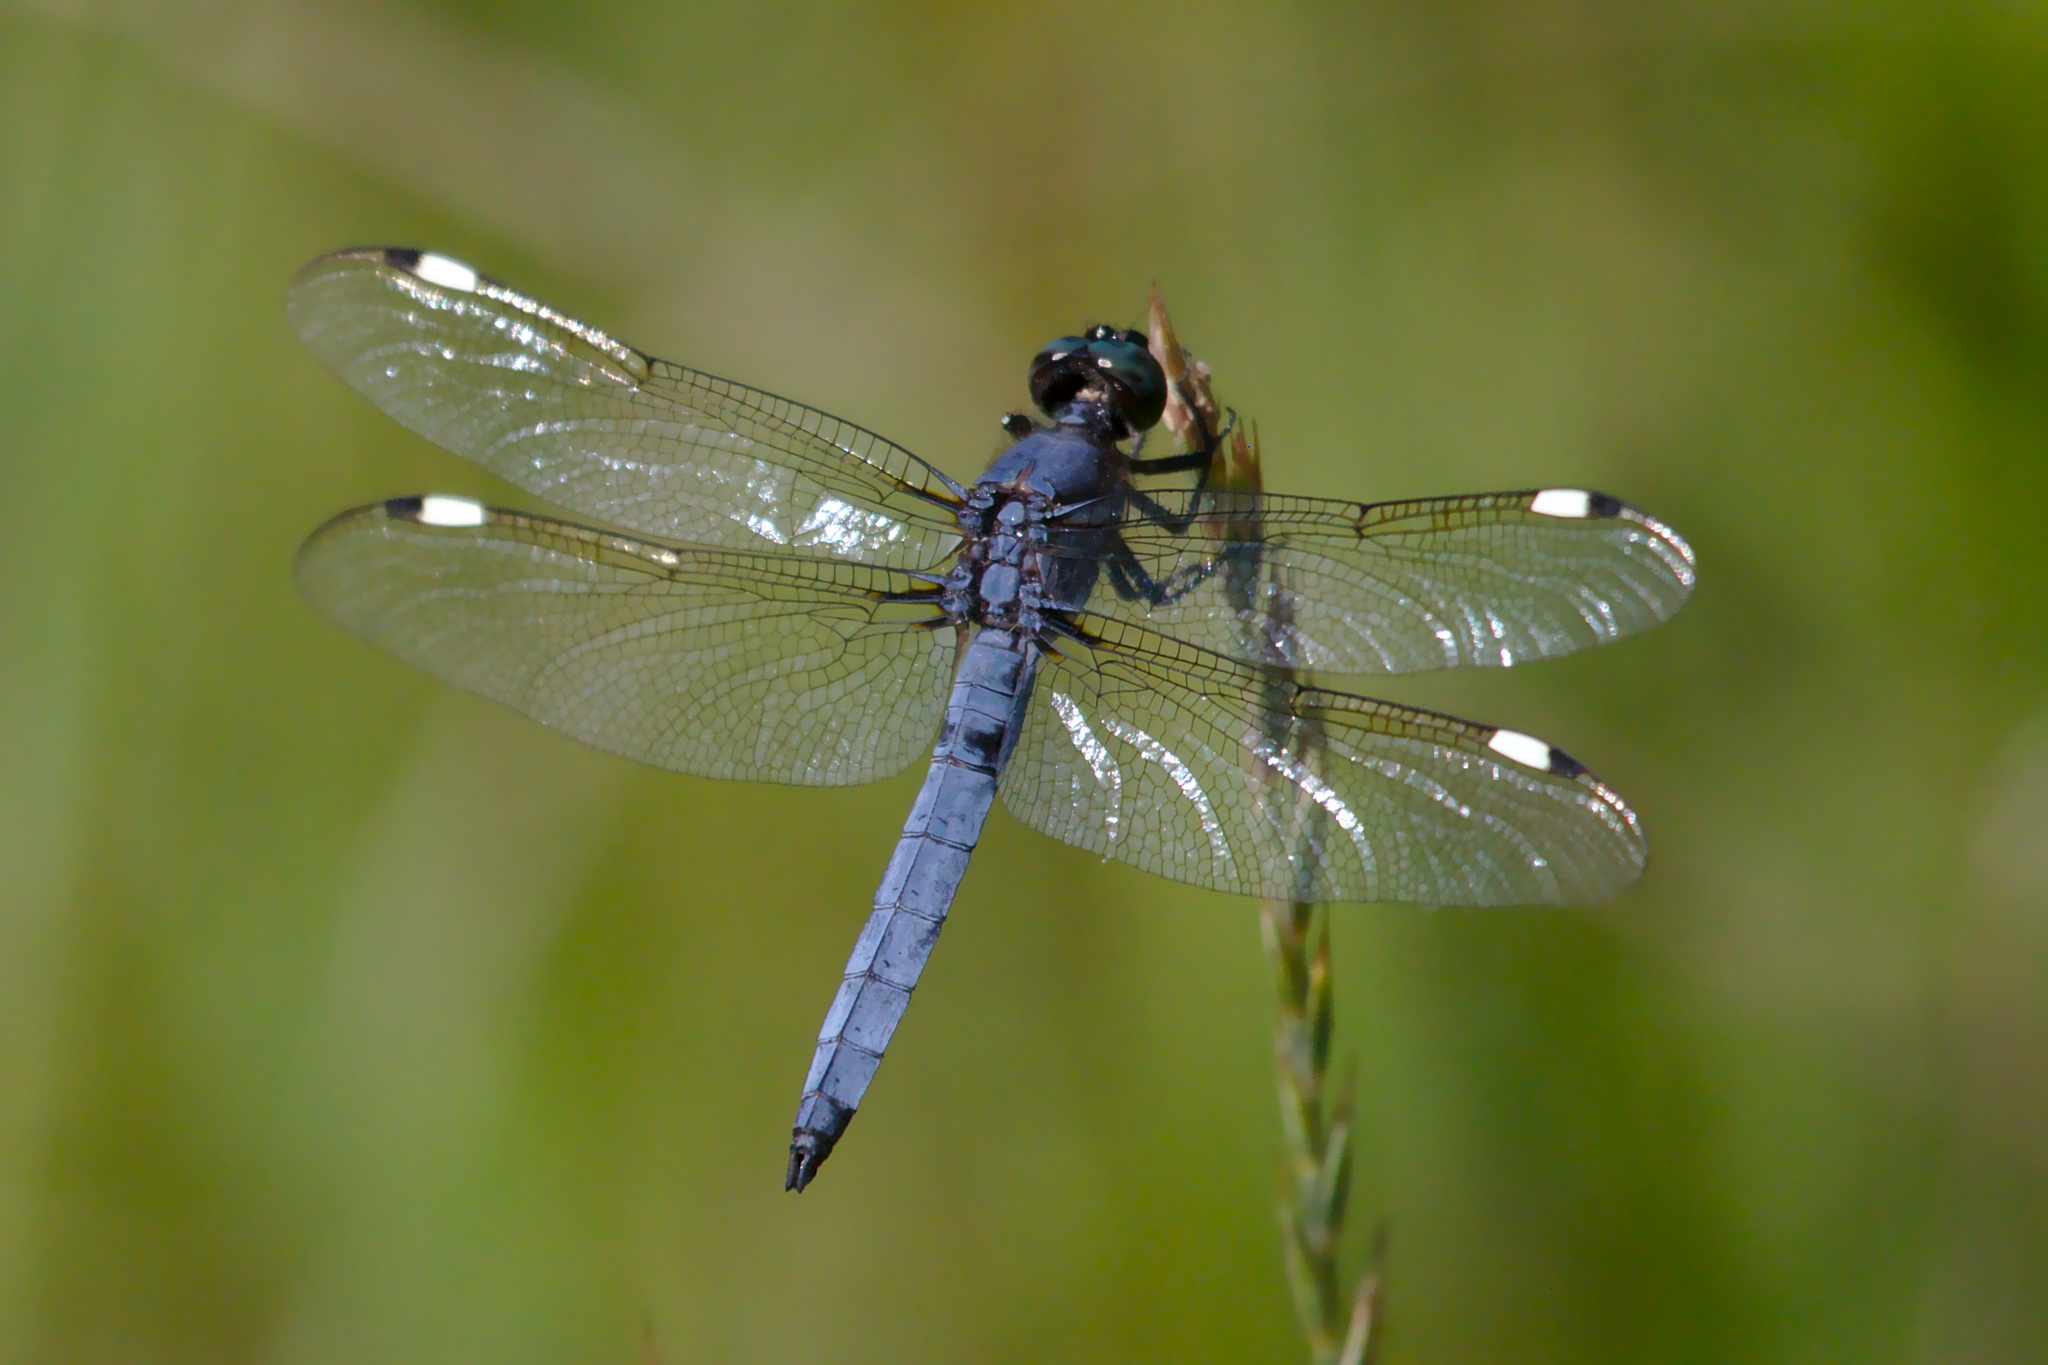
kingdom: Animalia
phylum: Arthropoda
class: Insecta
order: Odonata
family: Libellulidae
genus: Libellula
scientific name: Libellula cyanea
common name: Spangled skimmer
